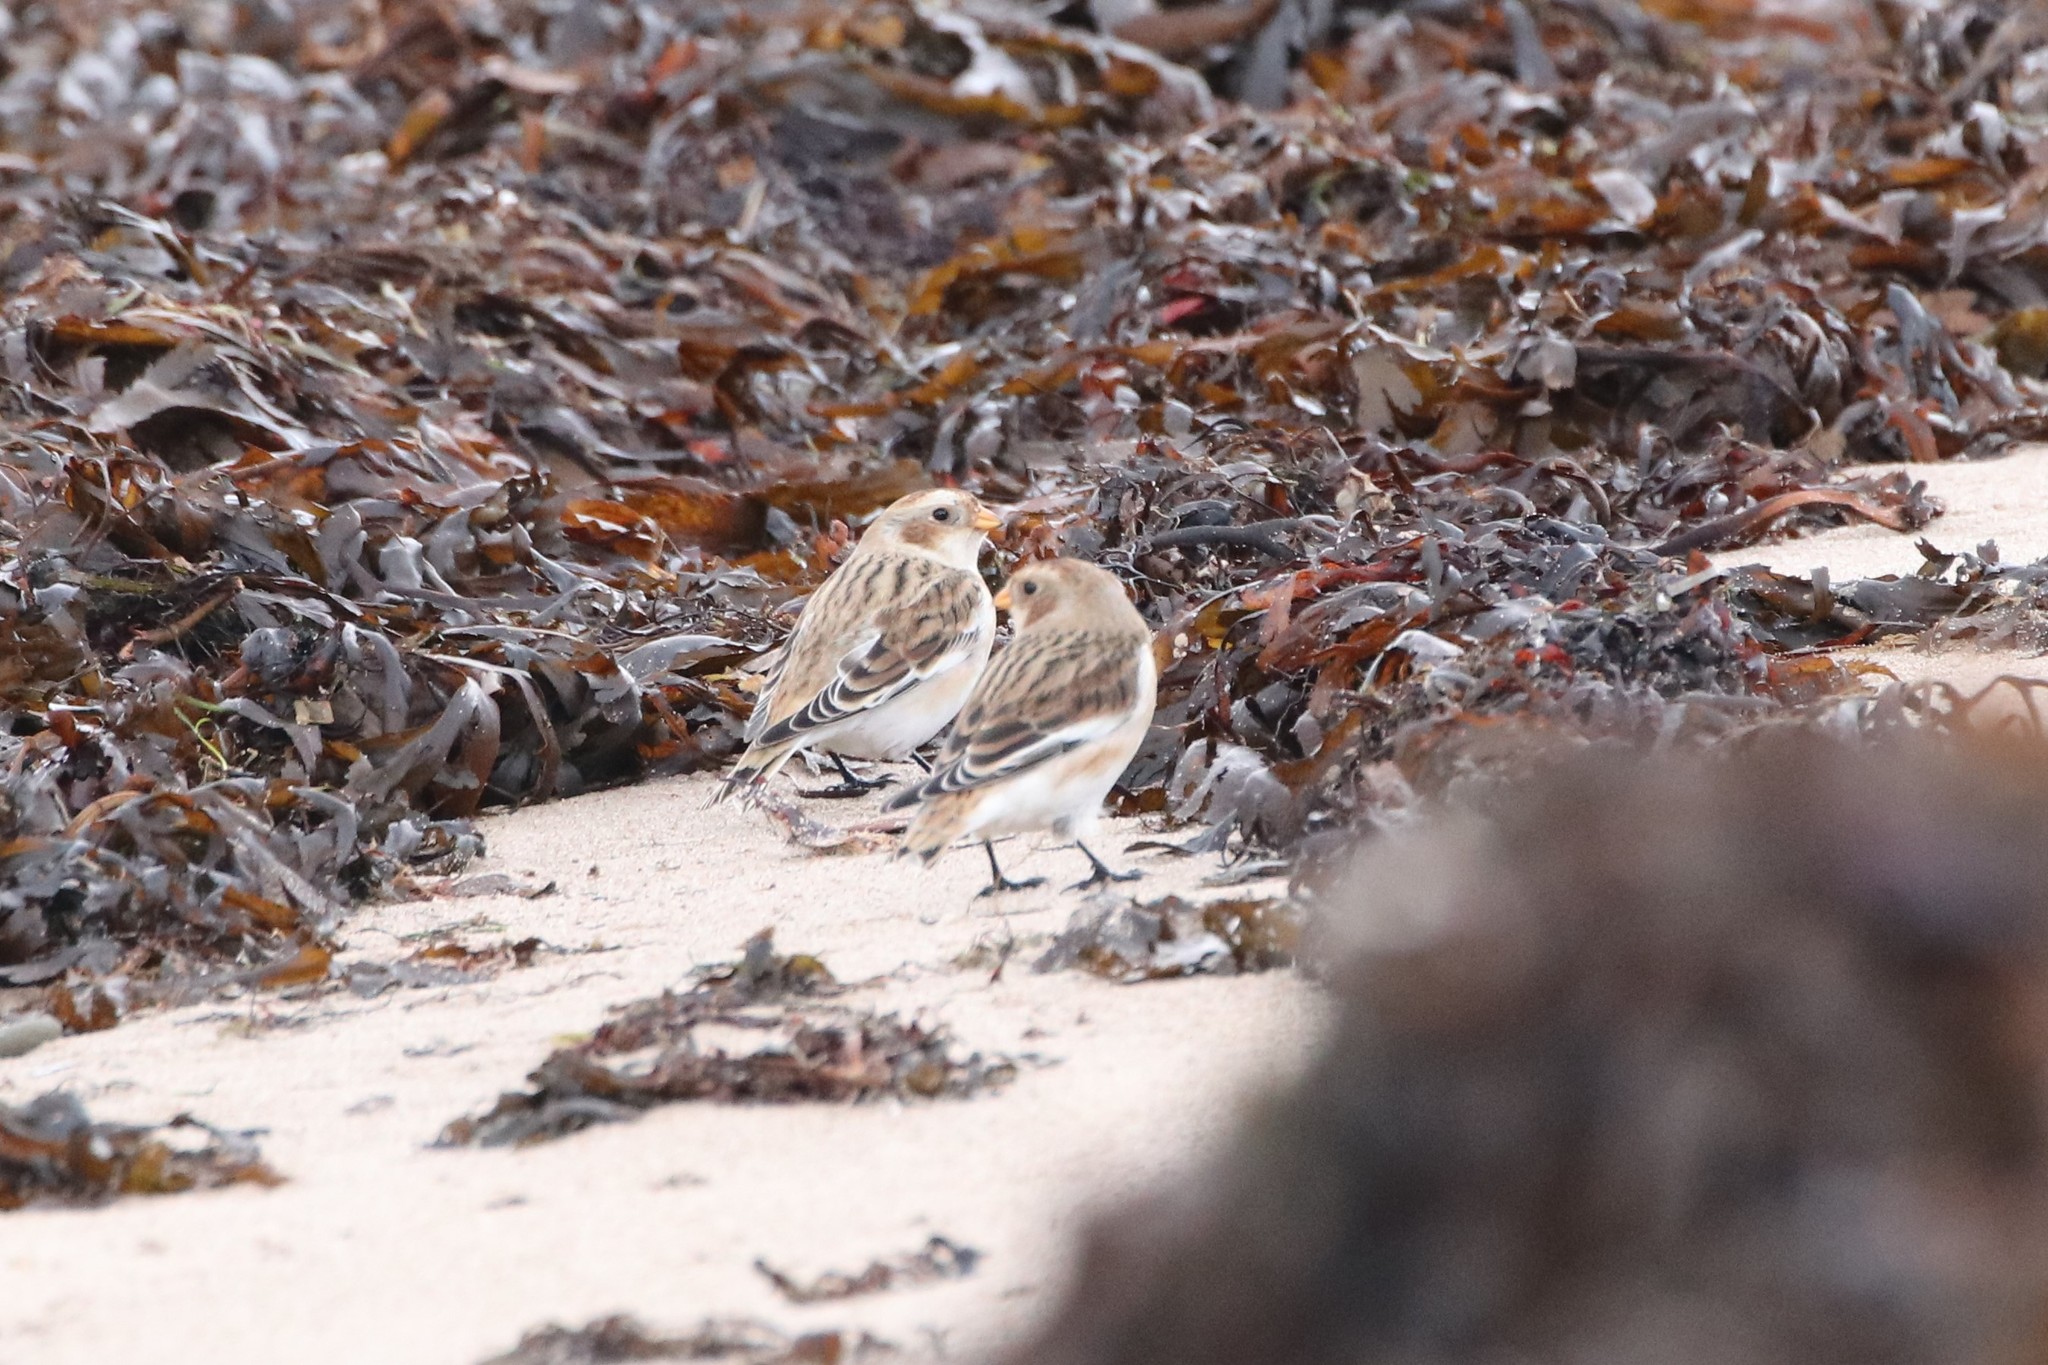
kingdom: Animalia
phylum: Chordata
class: Aves
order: Passeriformes
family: Calcariidae
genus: Plectrophenax
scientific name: Plectrophenax nivalis
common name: Snow bunting
